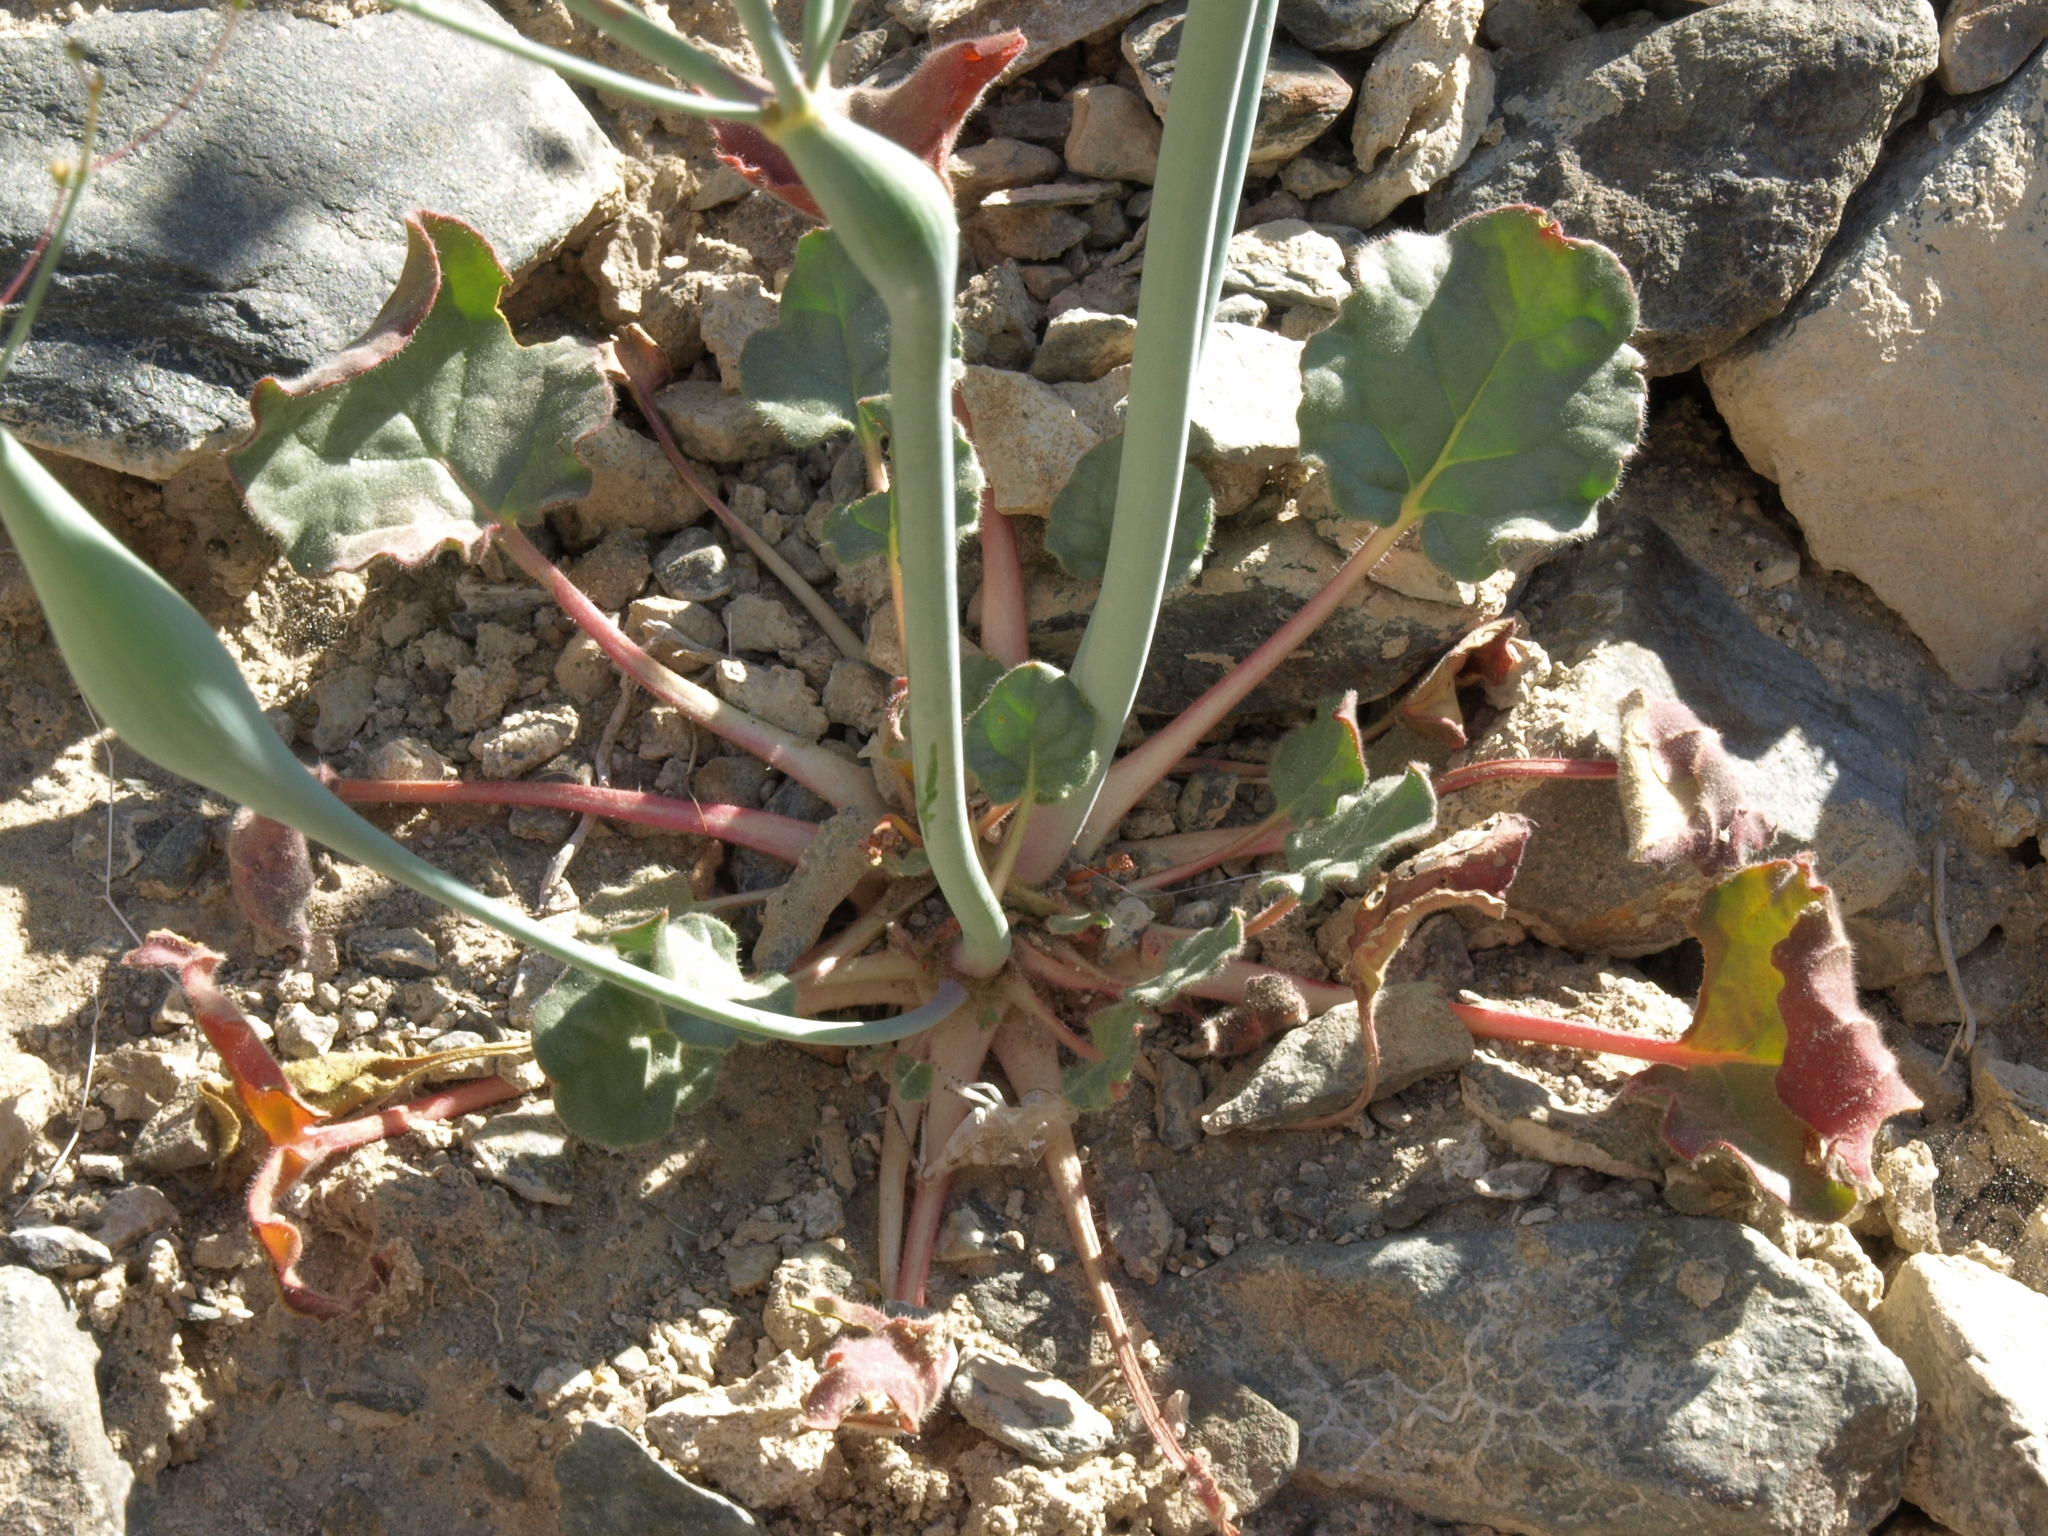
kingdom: Plantae
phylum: Tracheophyta
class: Magnoliopsida
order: Caryophyllales
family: Polygonaceae
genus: Eriogonum
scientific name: Eriogonum inflatum
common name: Desert trumpet
